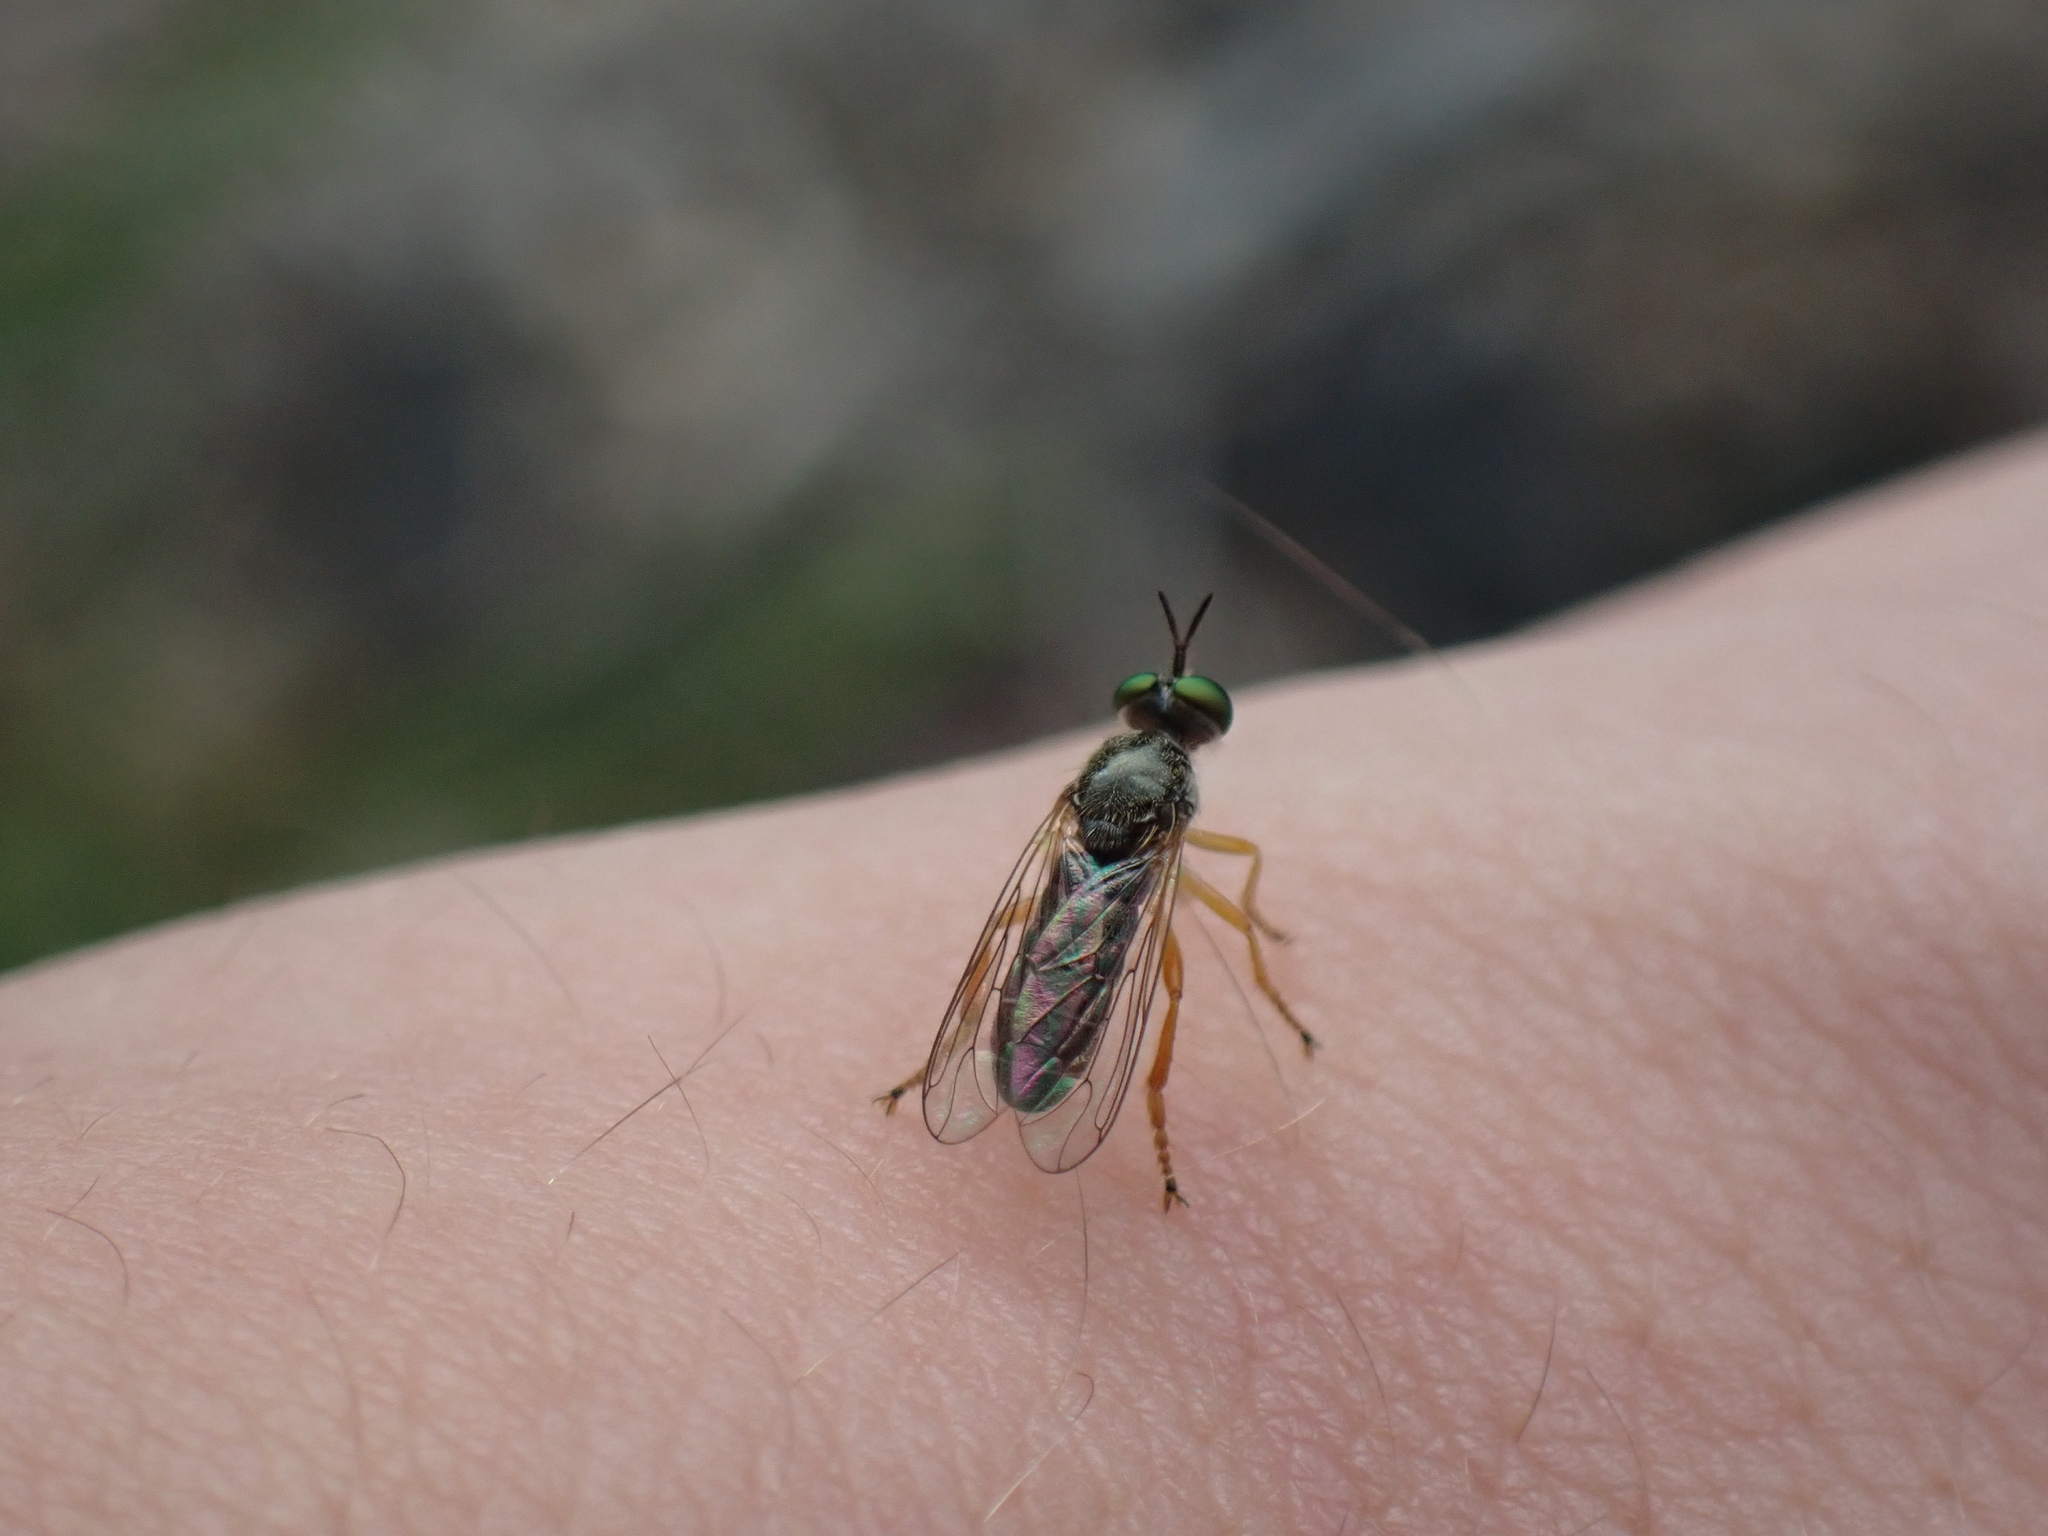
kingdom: Animalia
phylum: Arthropoda
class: Insecta
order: Diptera
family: Asilidae
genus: Atomosia
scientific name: Atomosia sayii
